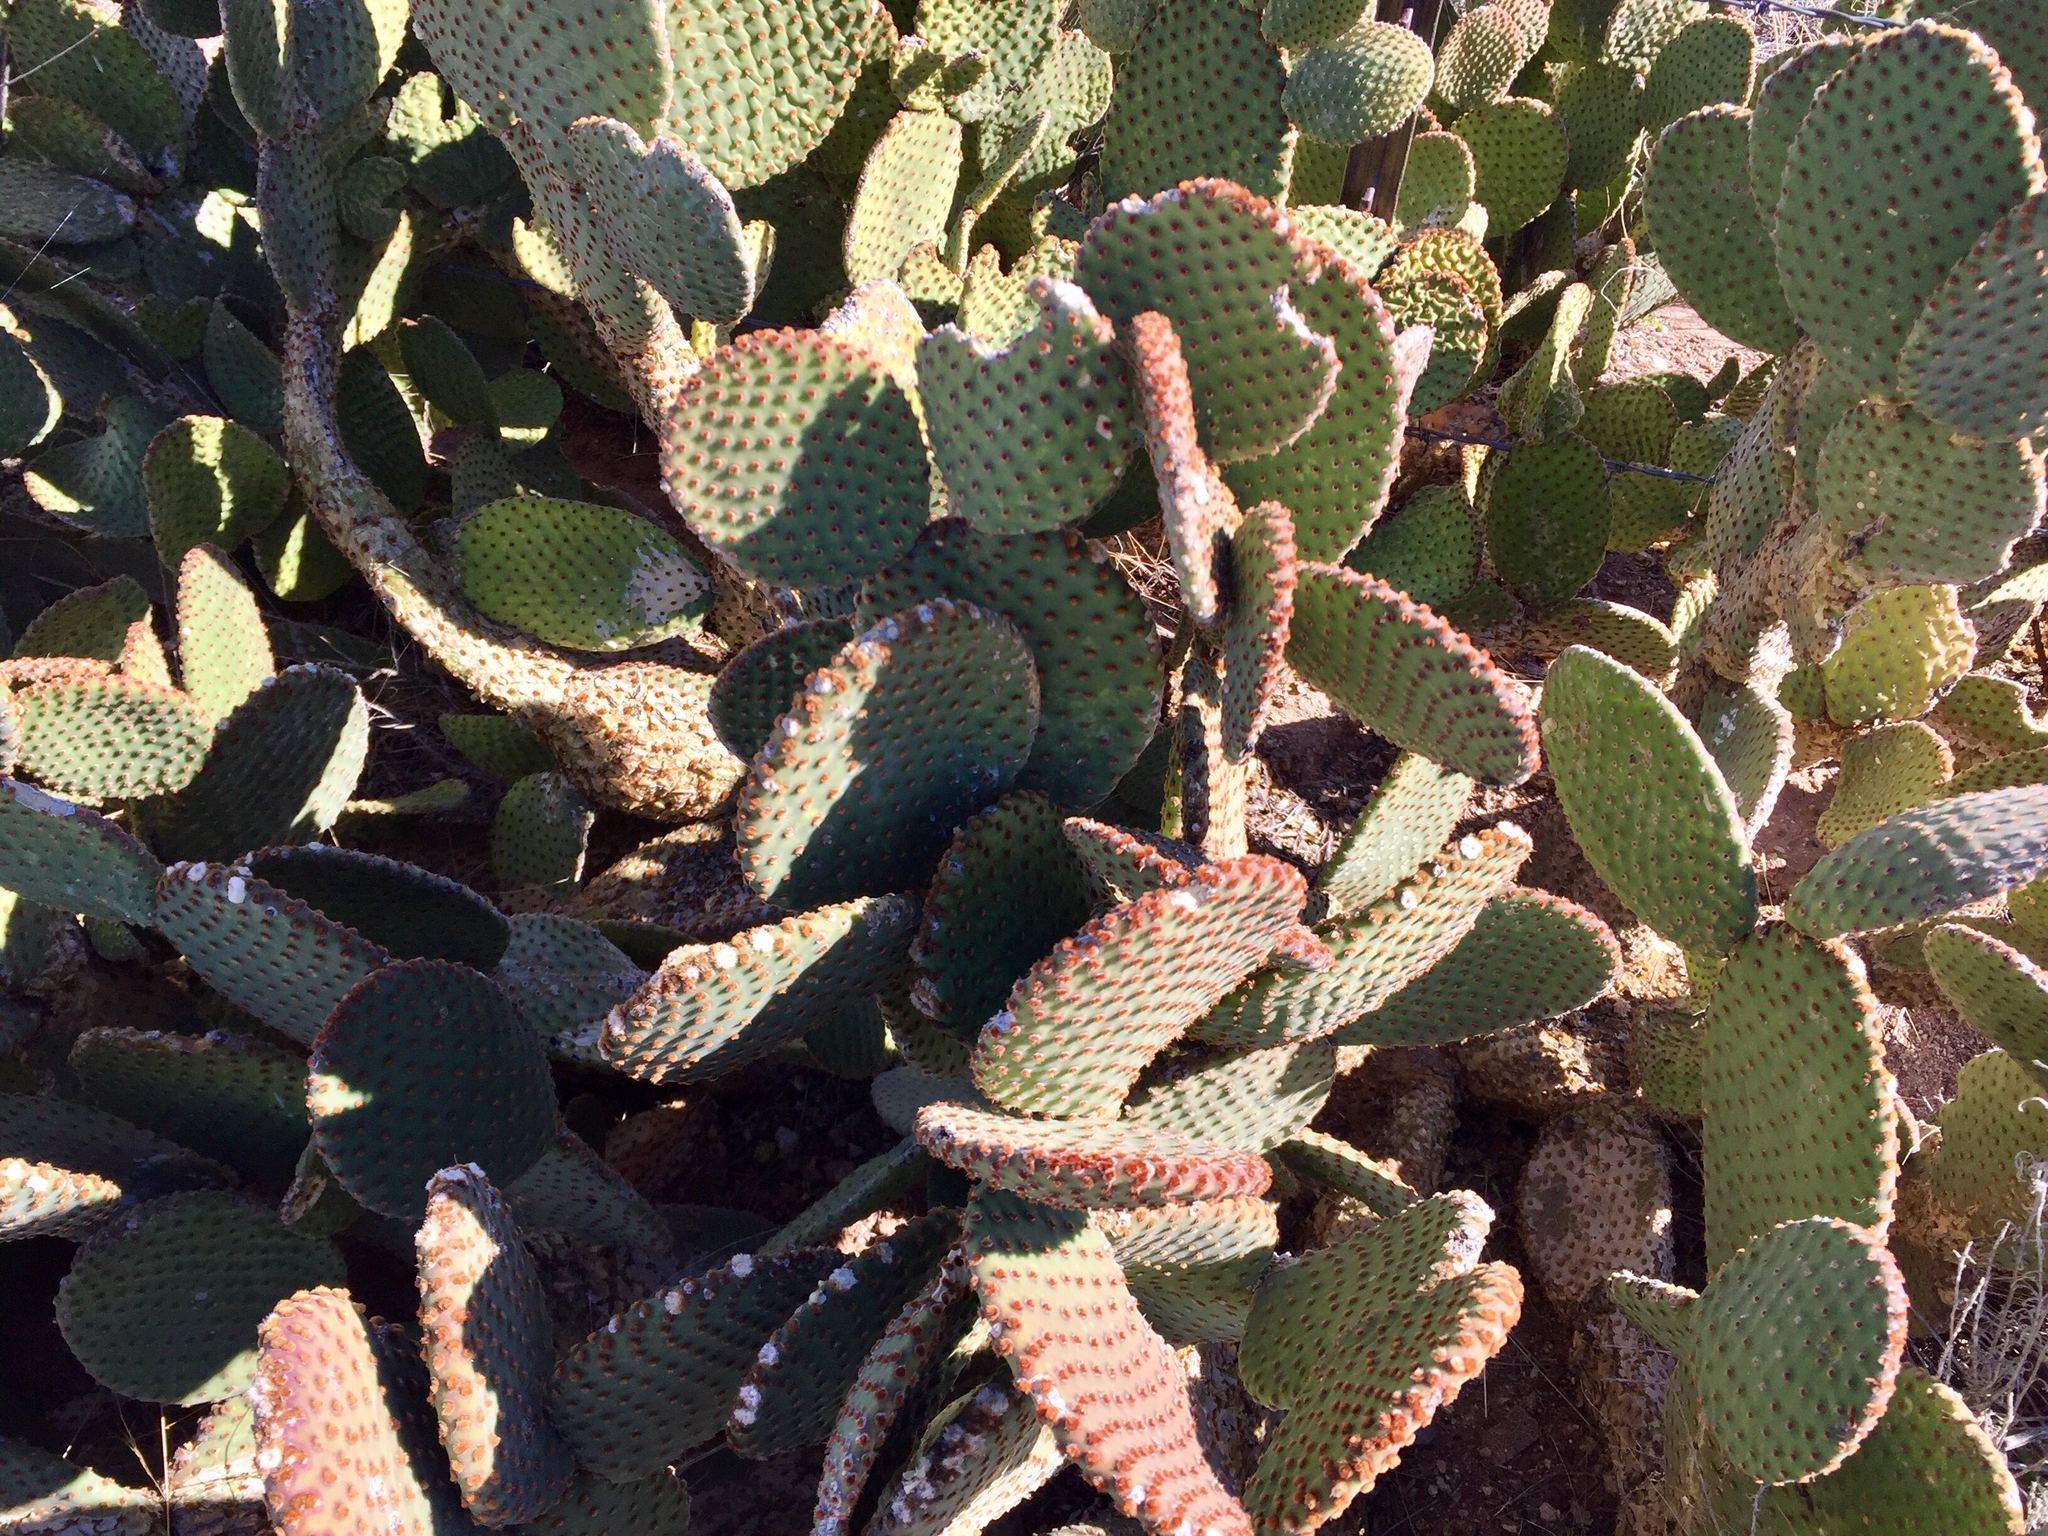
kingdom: Plantae
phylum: Tracheophyta
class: Magnoliopsida
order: Caryophyllales
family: Cactaceae
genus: Opuntia
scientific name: Opuntia basilaris
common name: Beavertail prickly-pear
